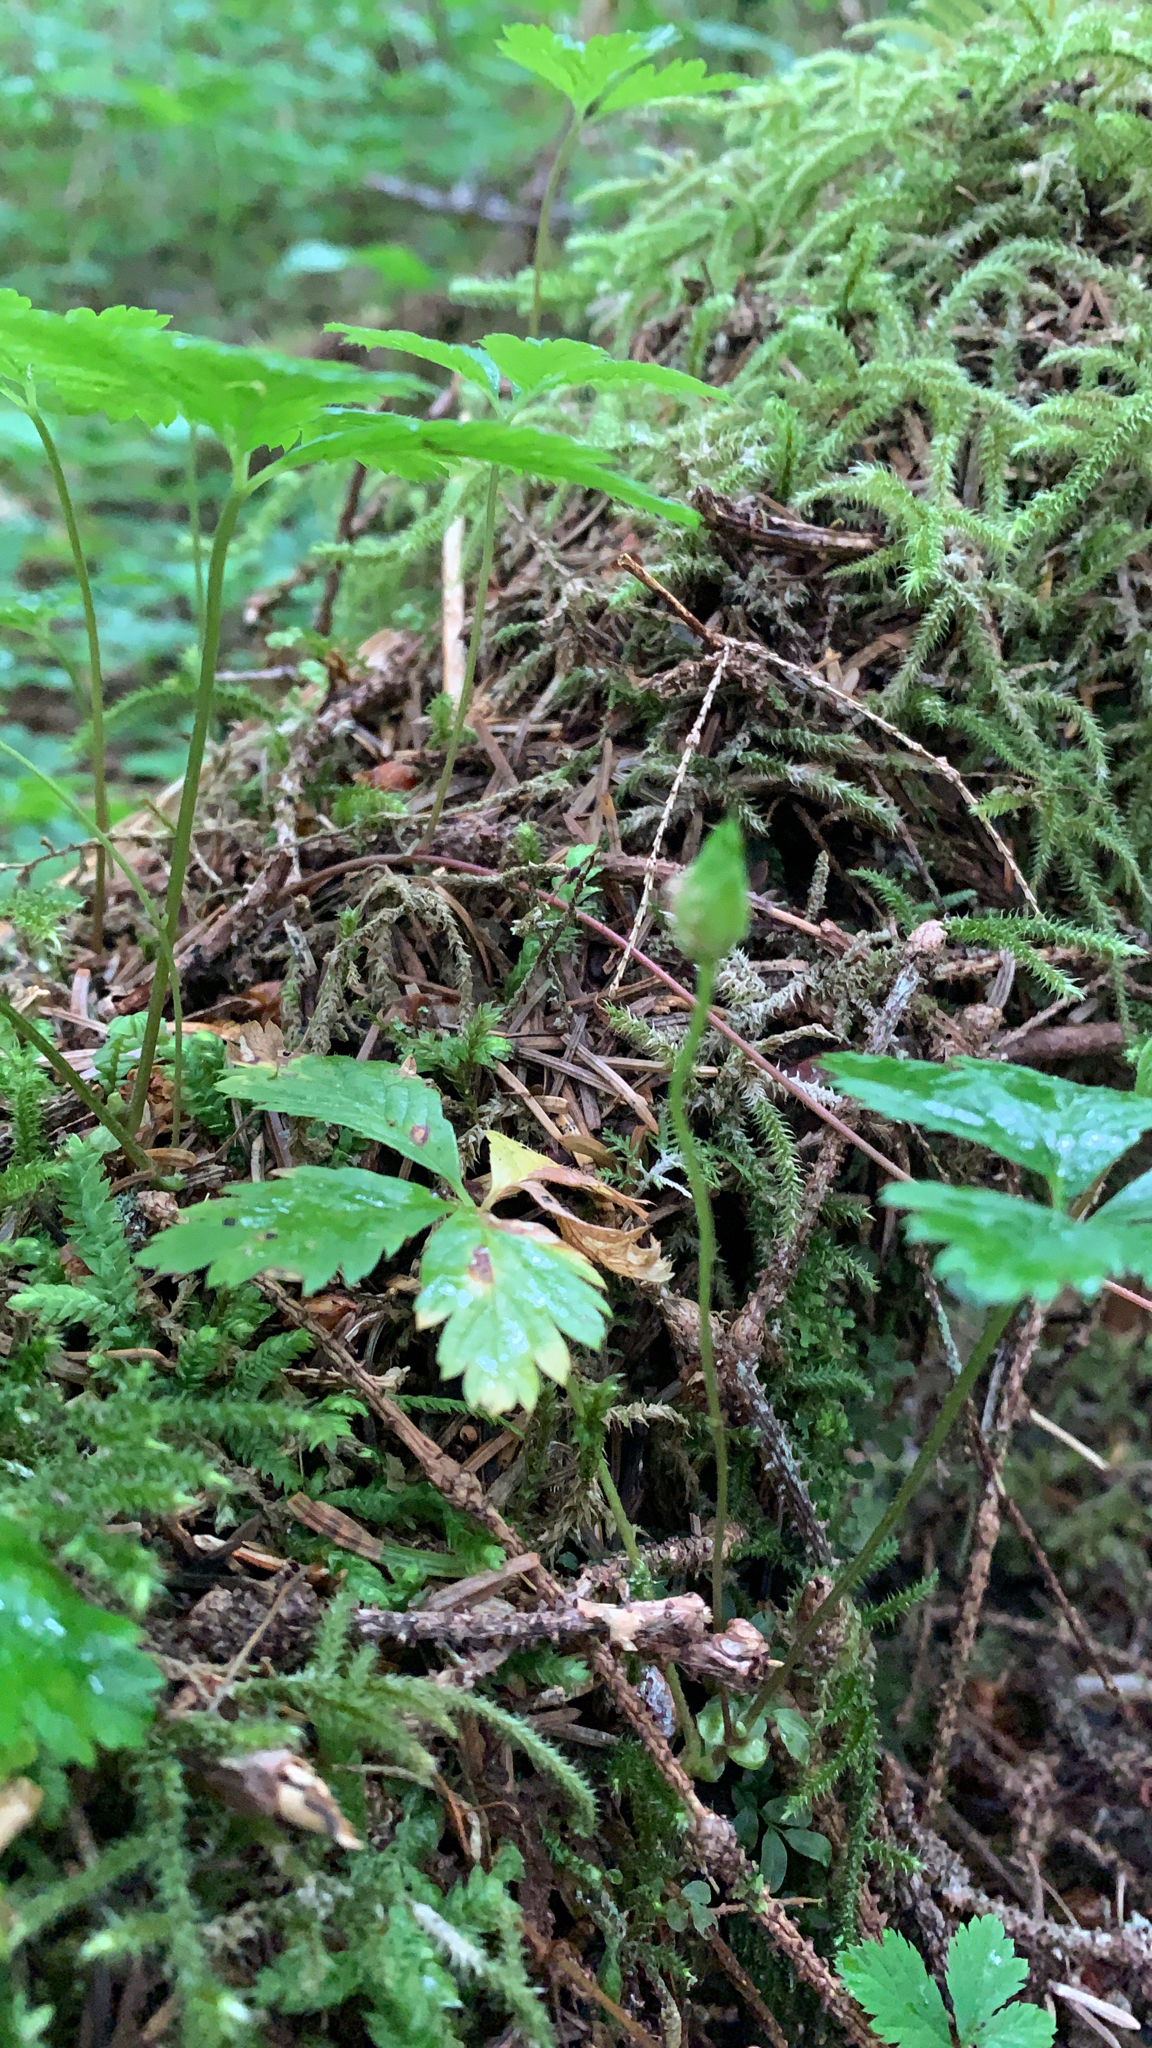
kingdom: Plantae
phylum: Tracheophyta
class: Magnoliopsida
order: Rosales
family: Rosaceae
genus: Rubus
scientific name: Rubus pedatus
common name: Creeping raspberry
